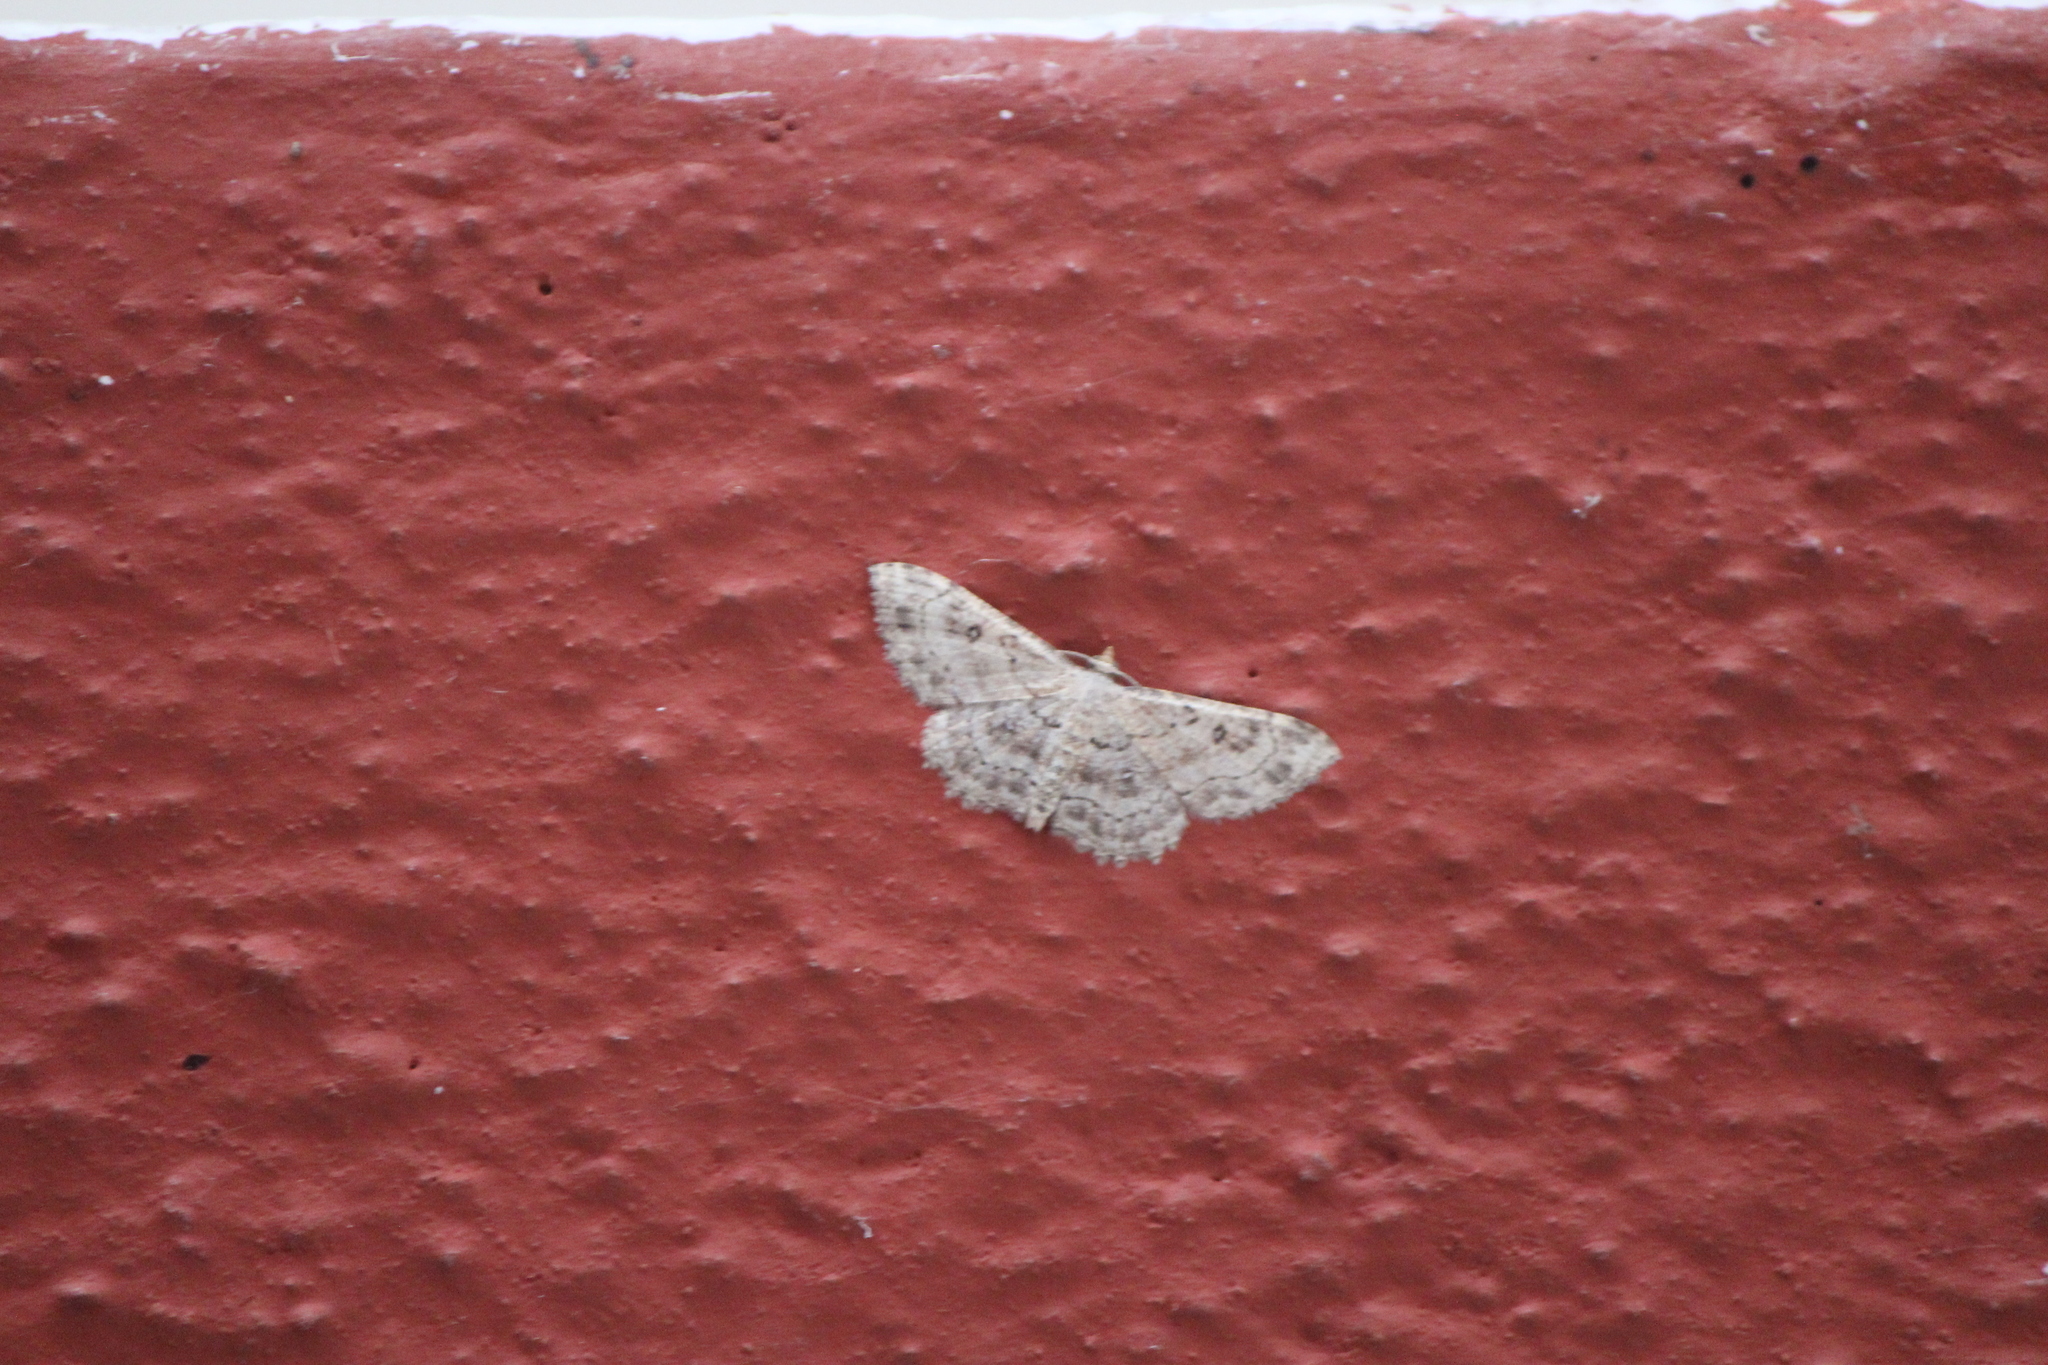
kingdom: Animalia
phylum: Arthropoda
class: Insecta
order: Lepidoptera
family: Geometridae
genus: Cyclophora
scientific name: Cyclophora nanaria
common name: Cankerworm
